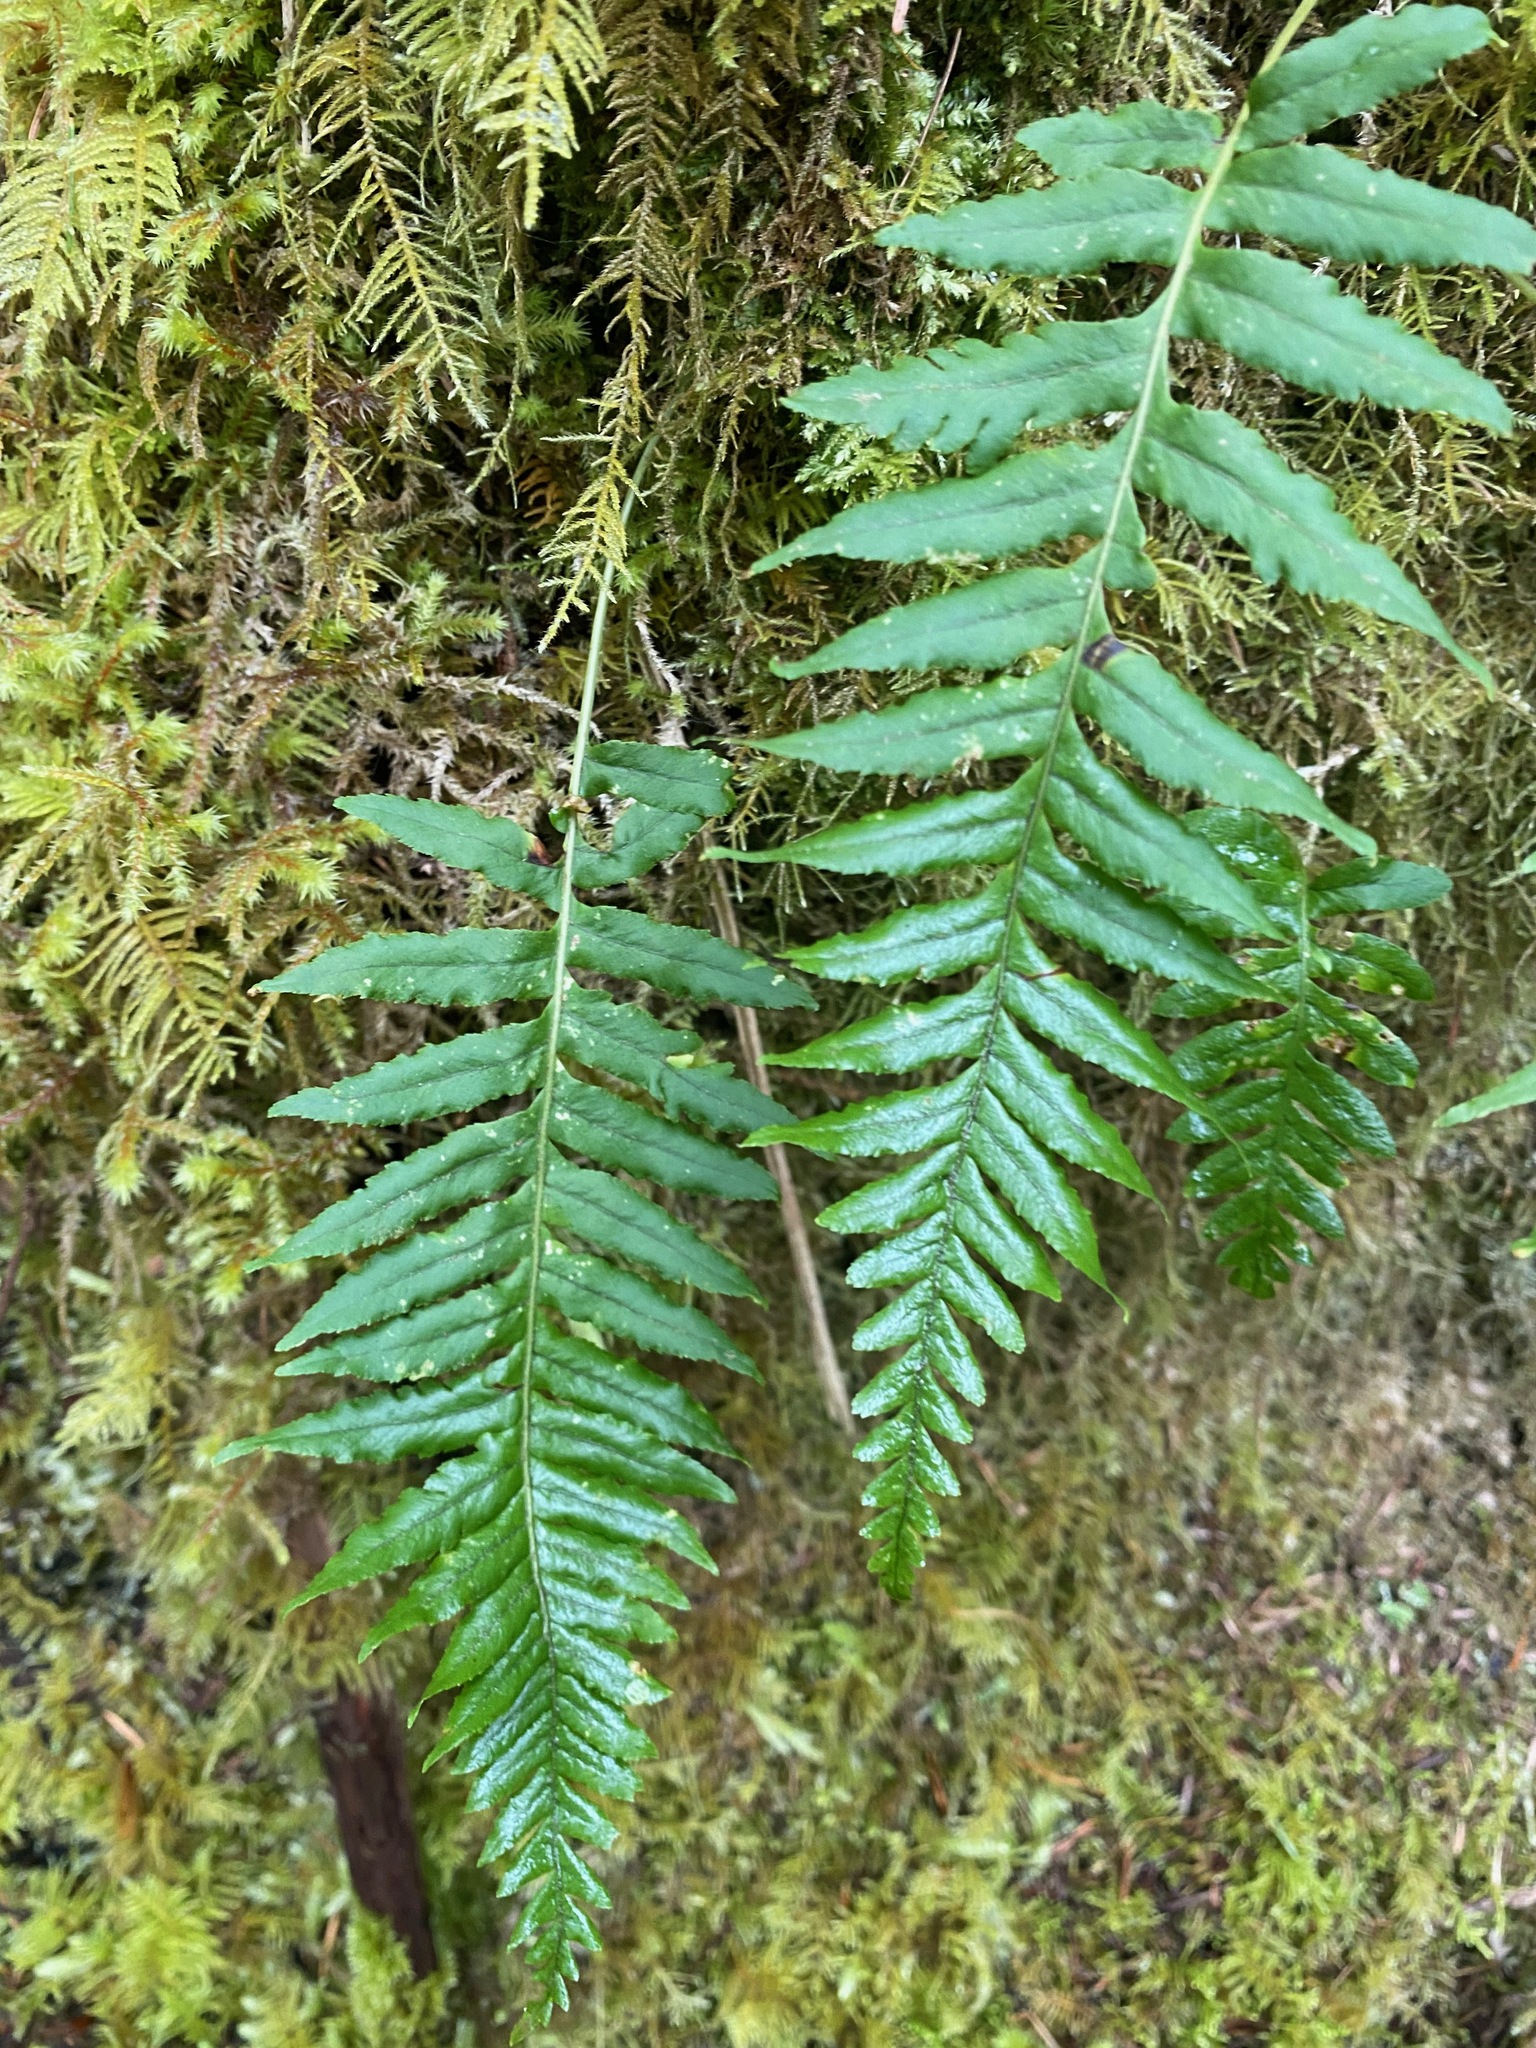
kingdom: Plantae
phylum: Tracheophyta
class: Polypodiopsida
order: Polypodiales
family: Polypodiaceae
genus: Polypodium
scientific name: Polypodium glycyrrhiza
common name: Licorice fern
